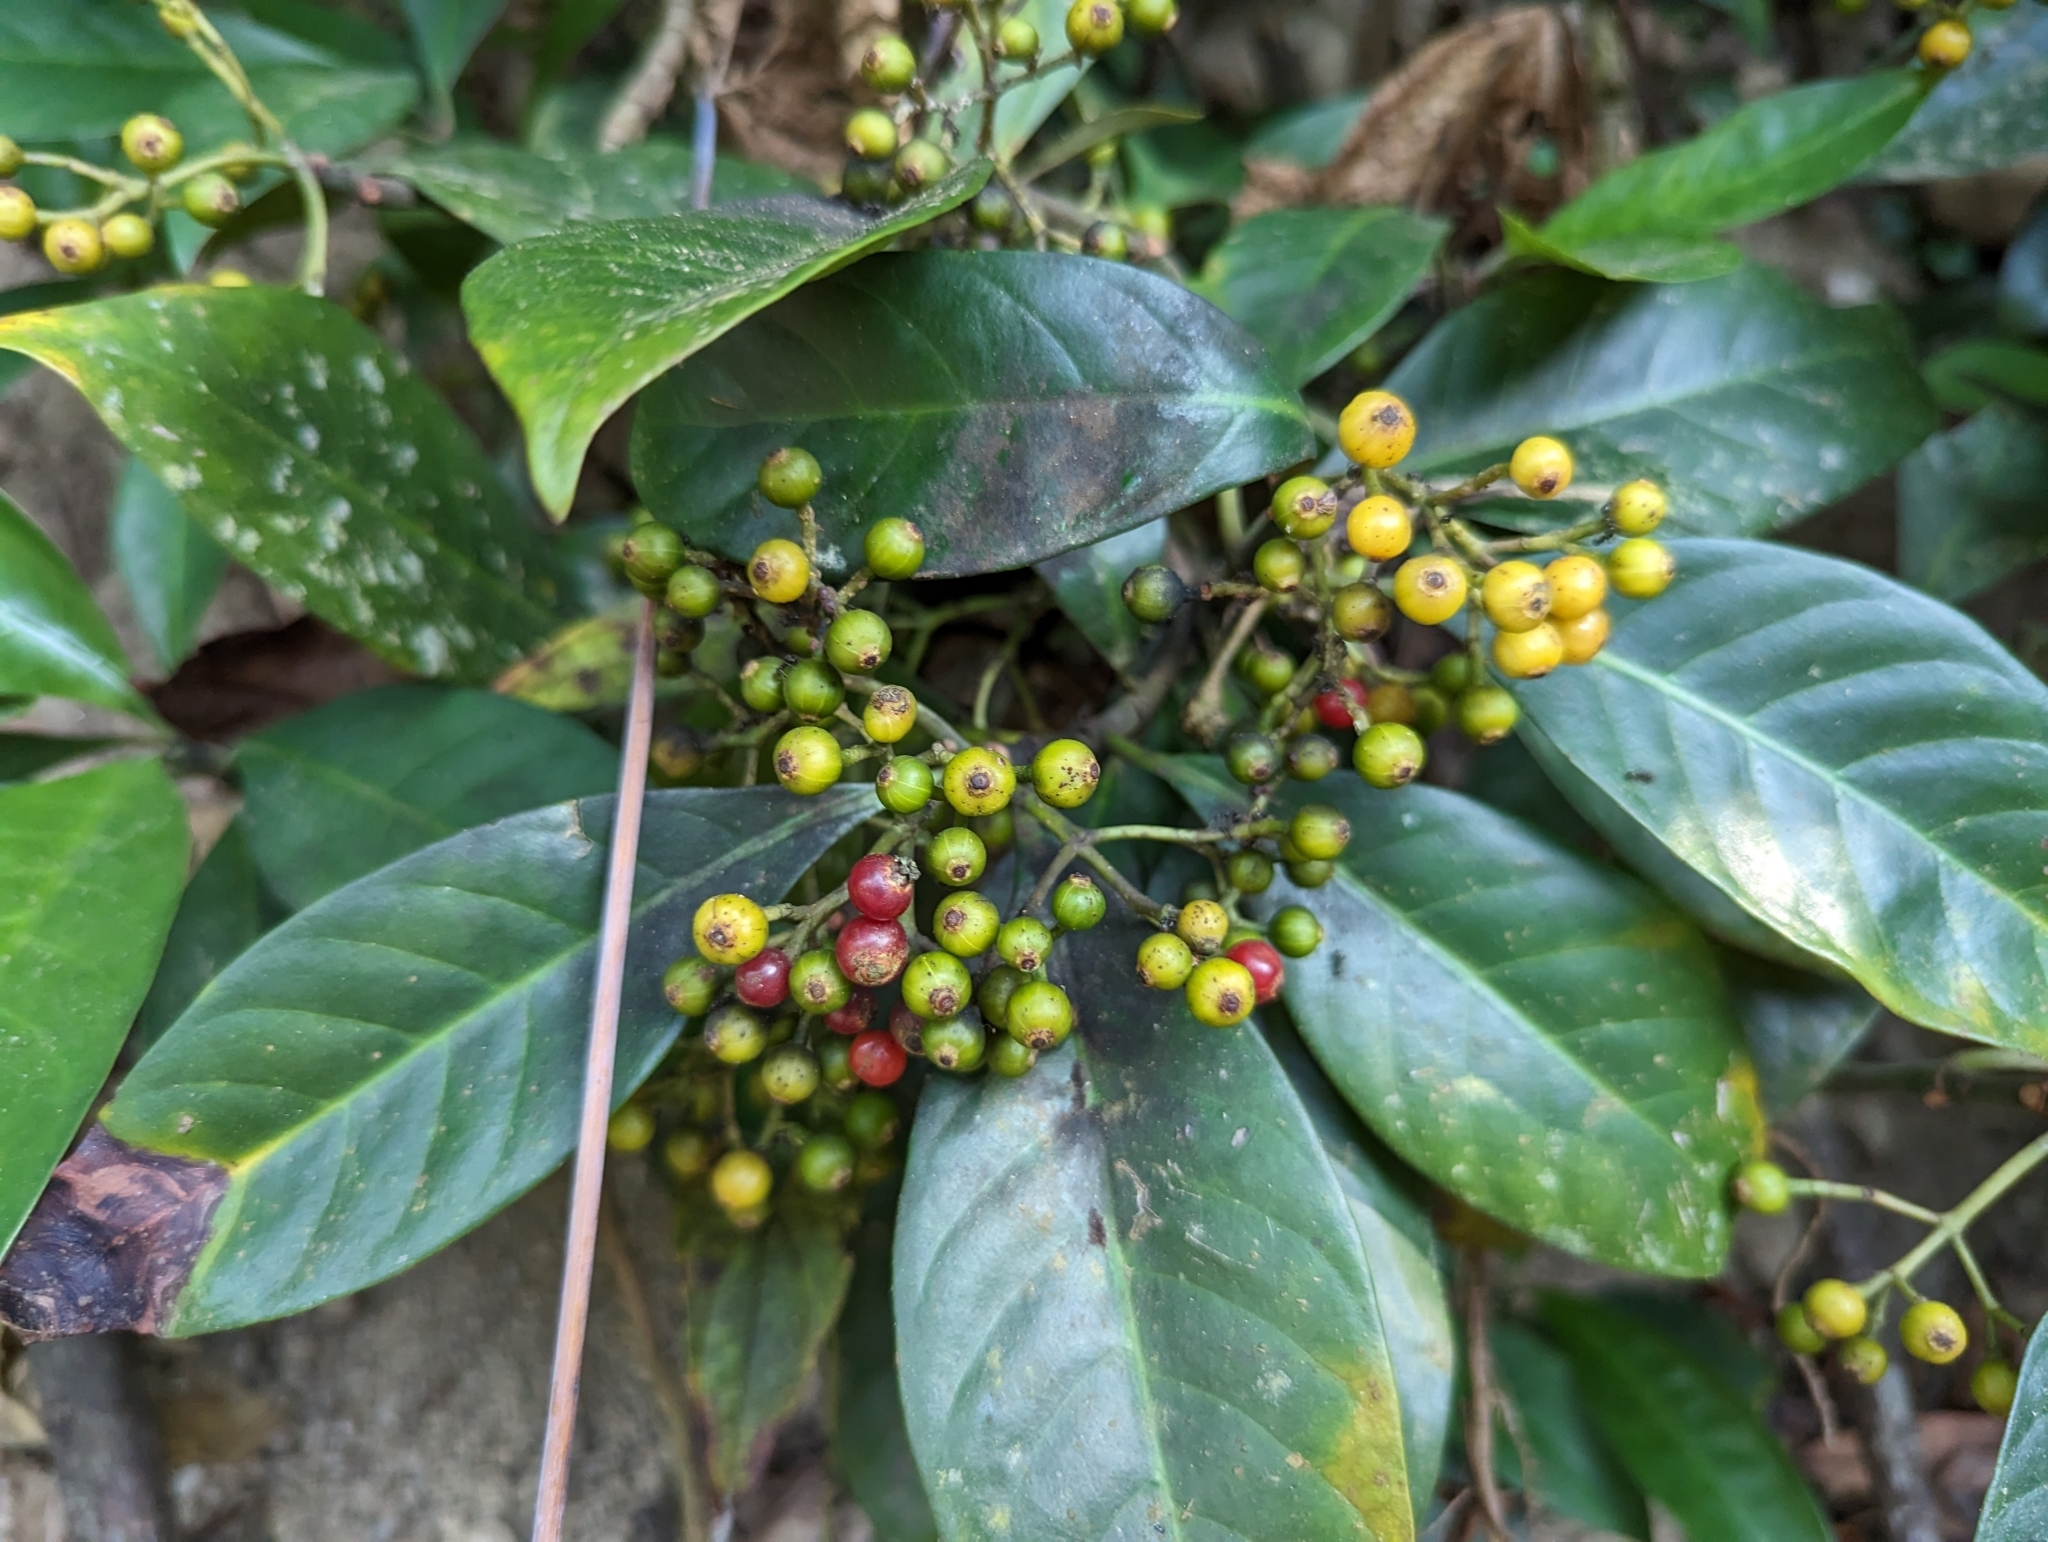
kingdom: Plantae
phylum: Tracheophyta
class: Magnoliopsida
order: Gentianales
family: Rubiaceae
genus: Psychotria
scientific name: Psychotria asiatica
